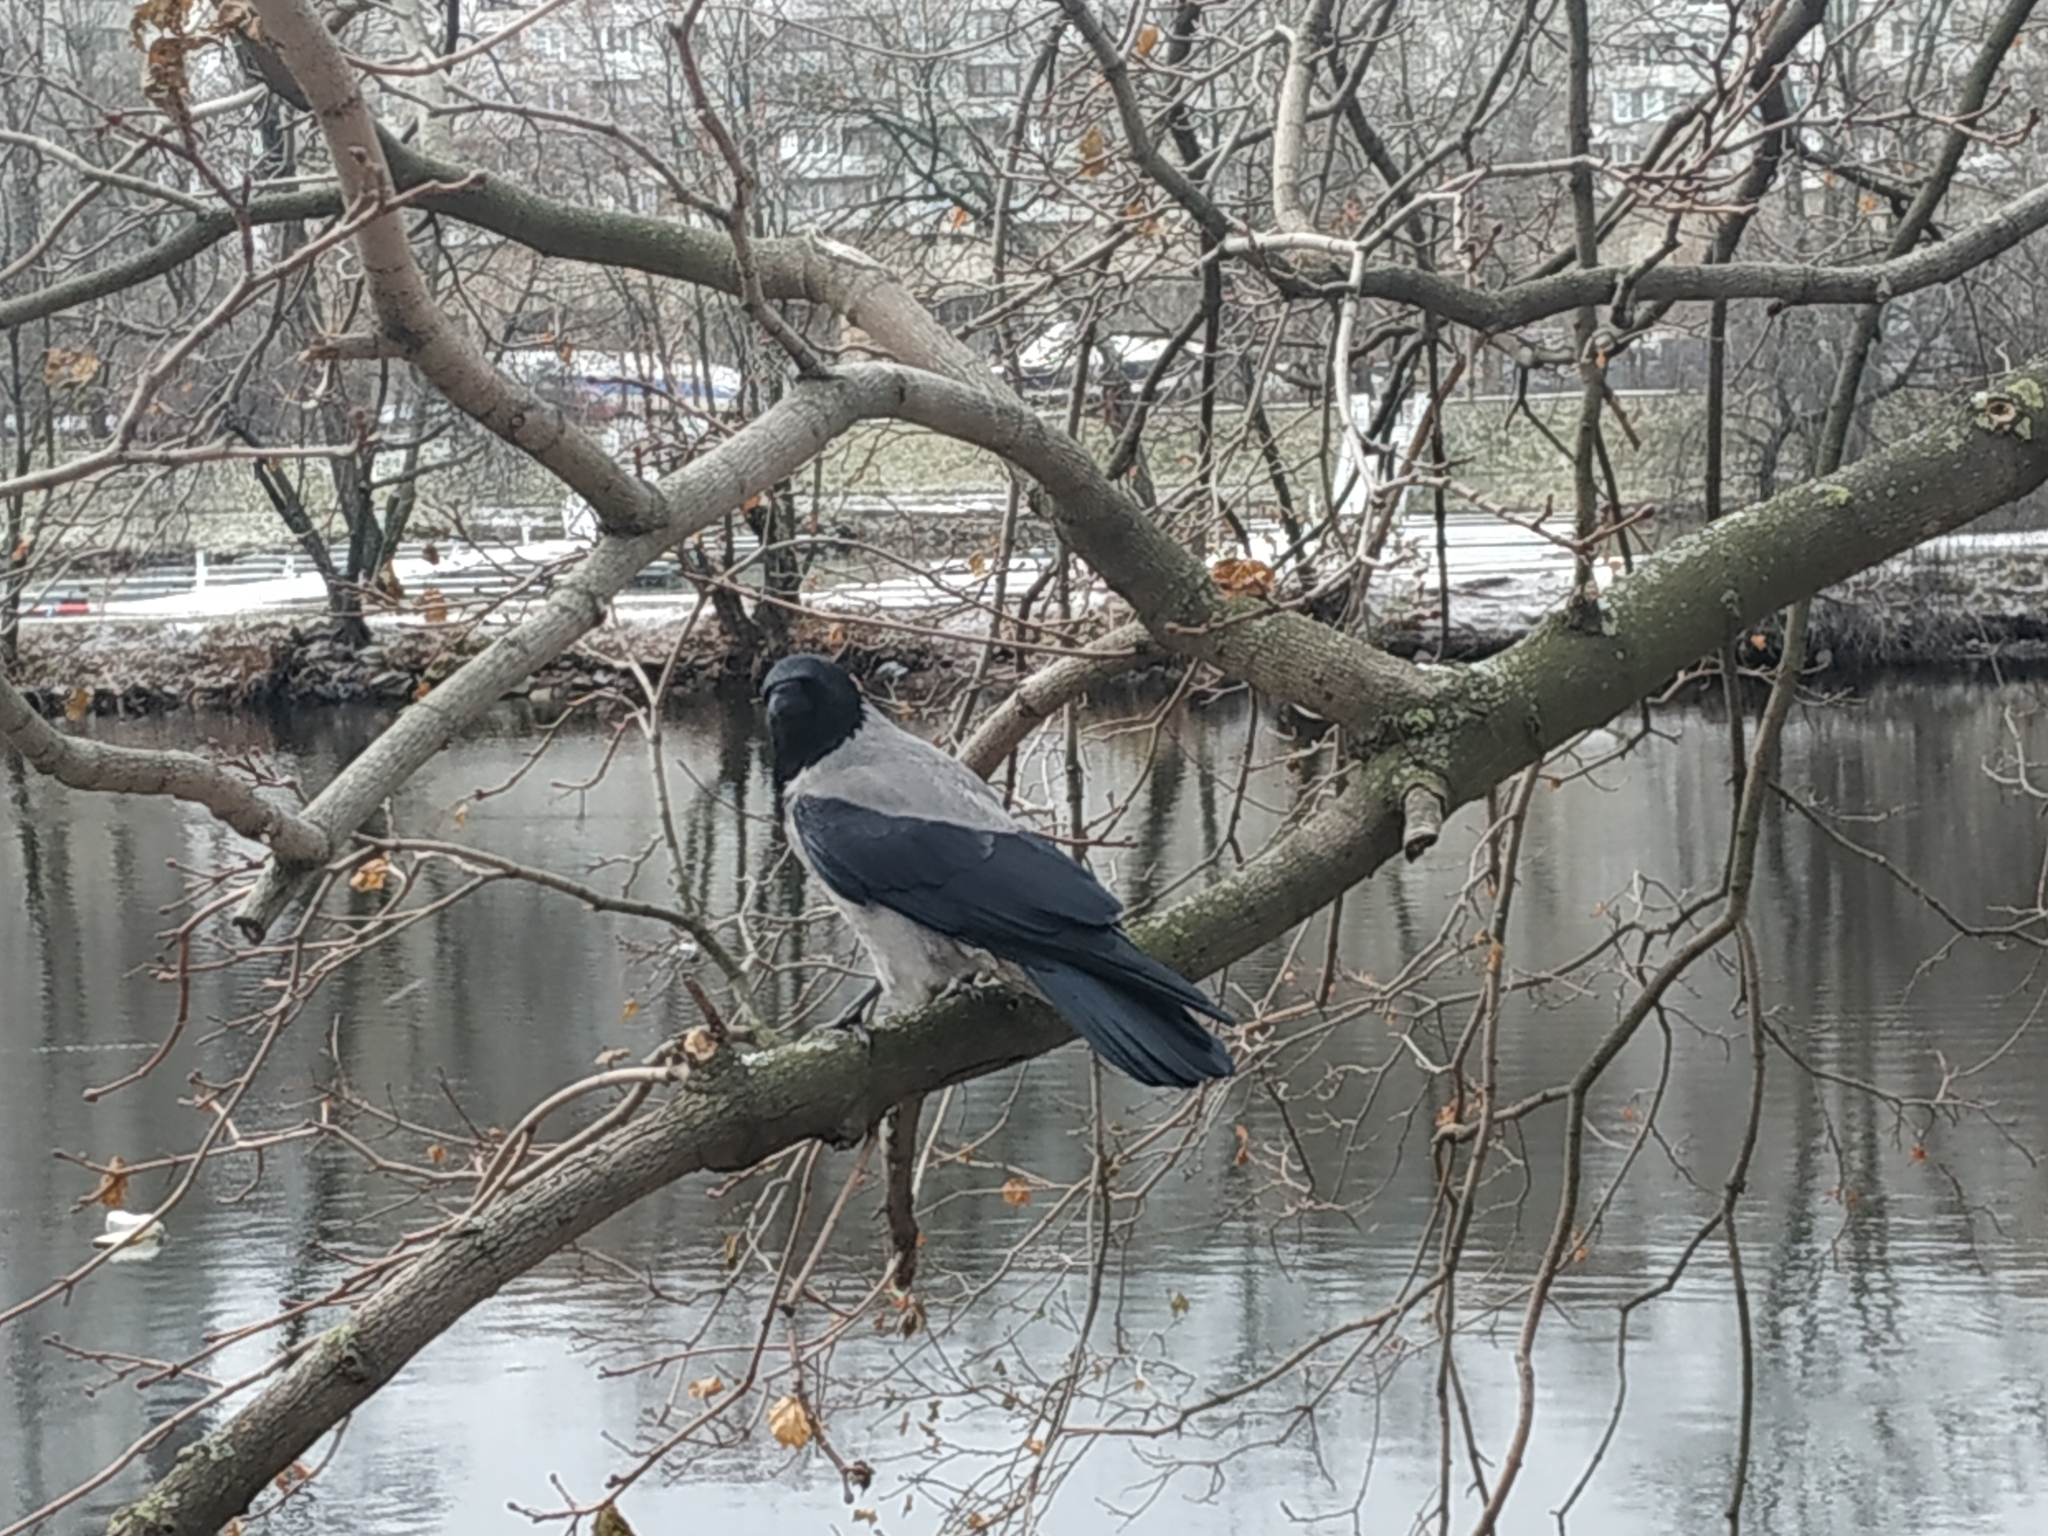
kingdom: Animalia
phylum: Chordata
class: Aves
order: Passeriformes
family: Corvidae
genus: Corvus
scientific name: Corvus cornix
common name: Hooded crow
